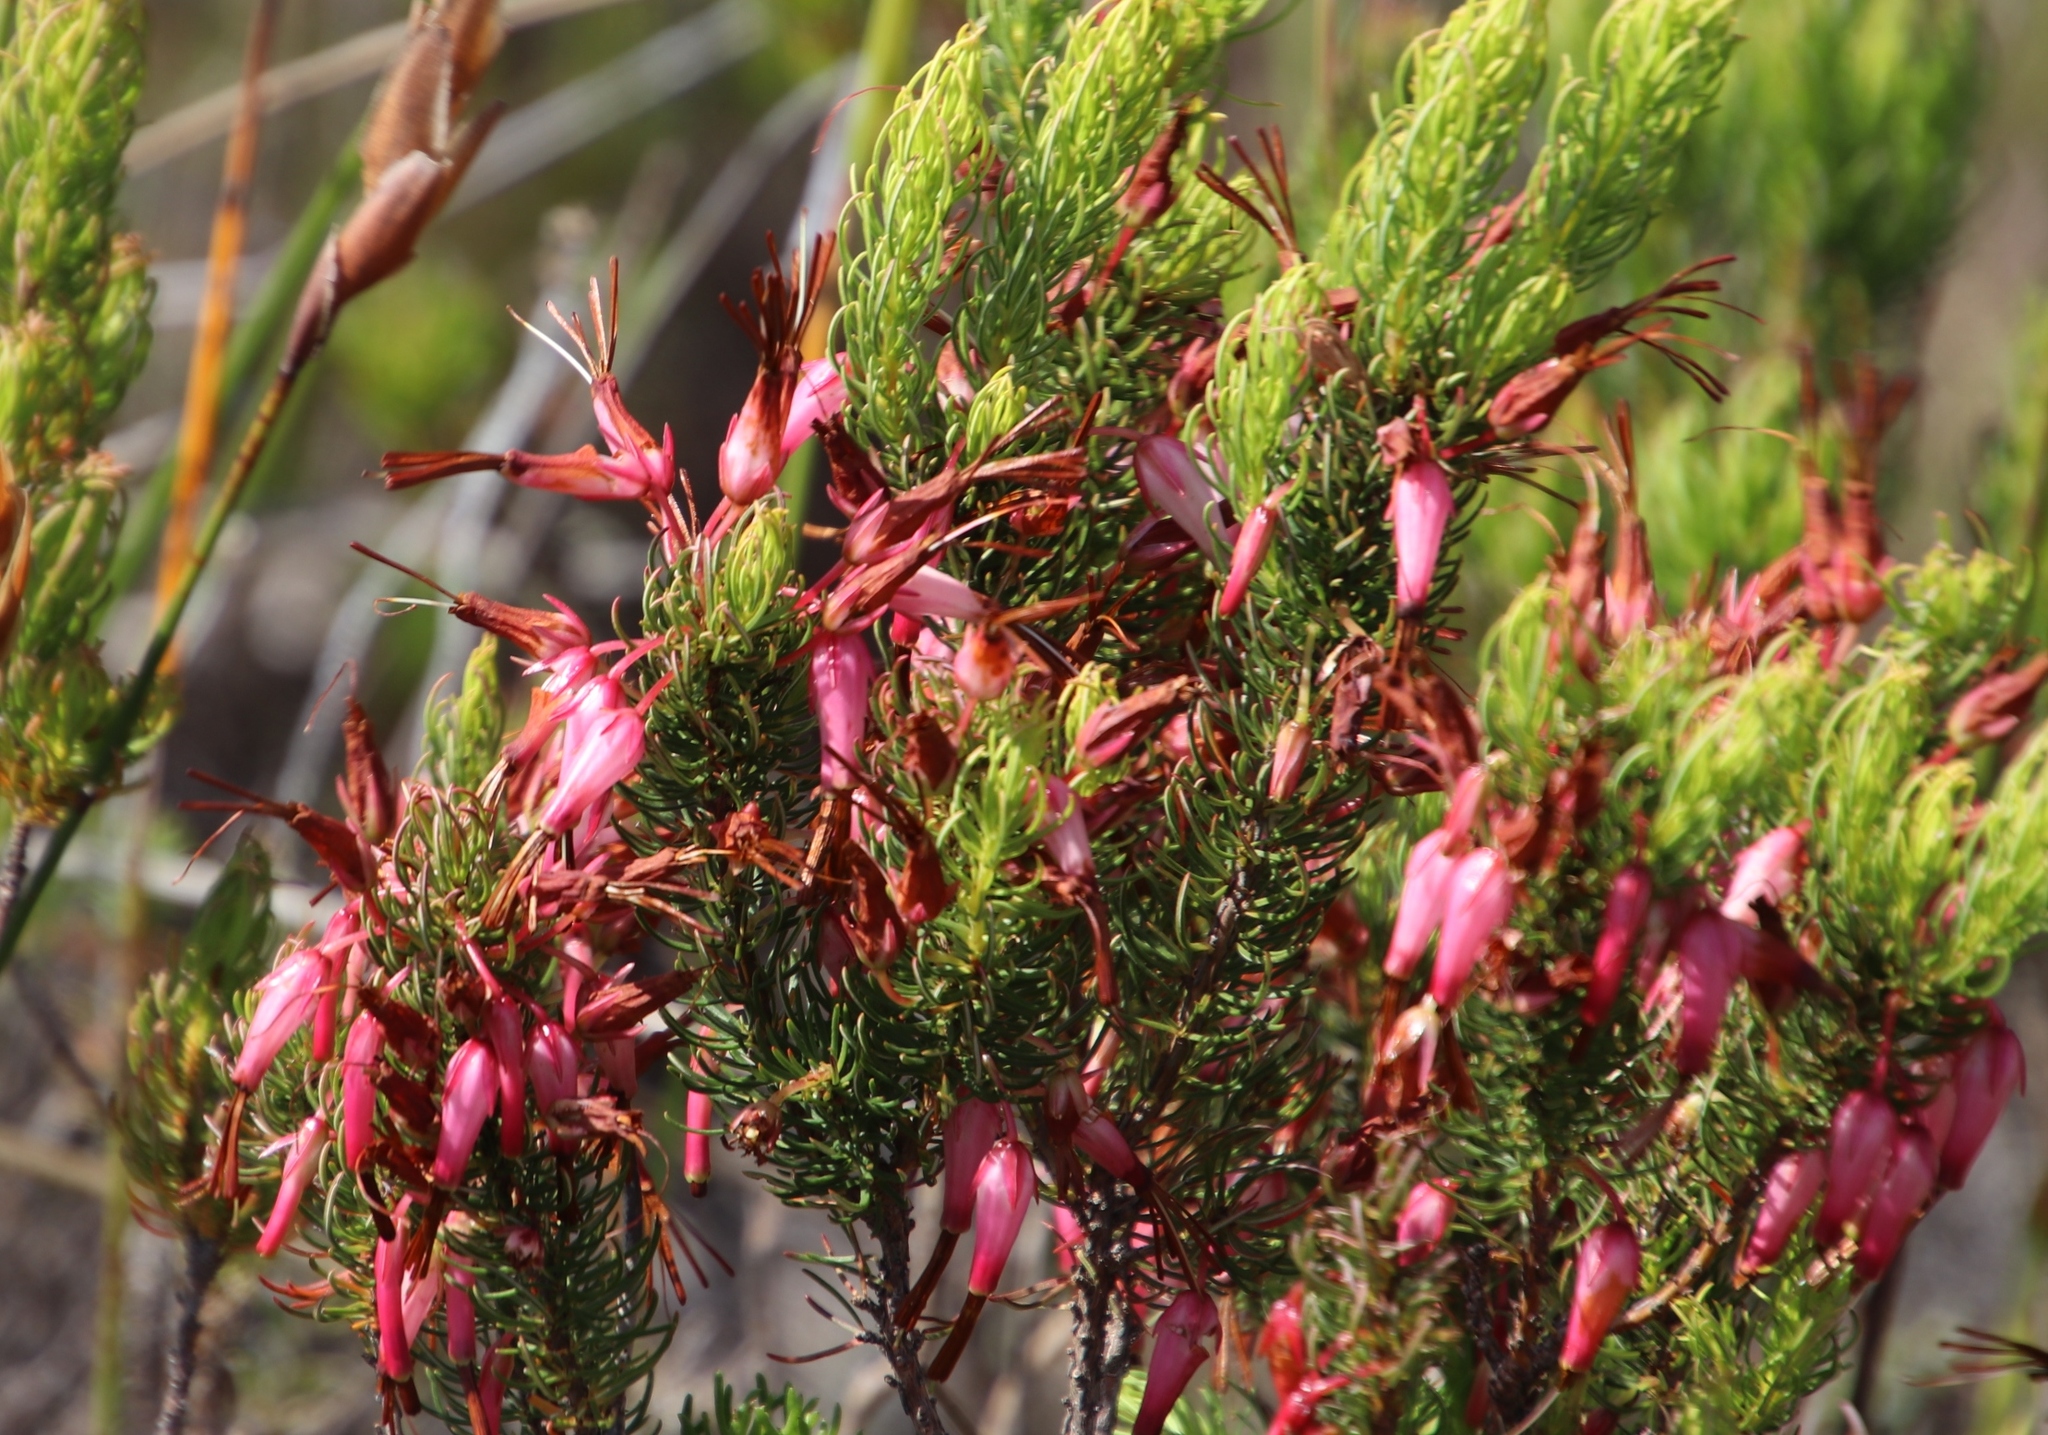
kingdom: Plantae
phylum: Tracheophyta
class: Magnoliopsida
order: Ericales
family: Ericaceae
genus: Erica
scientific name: Erica plukenetii
